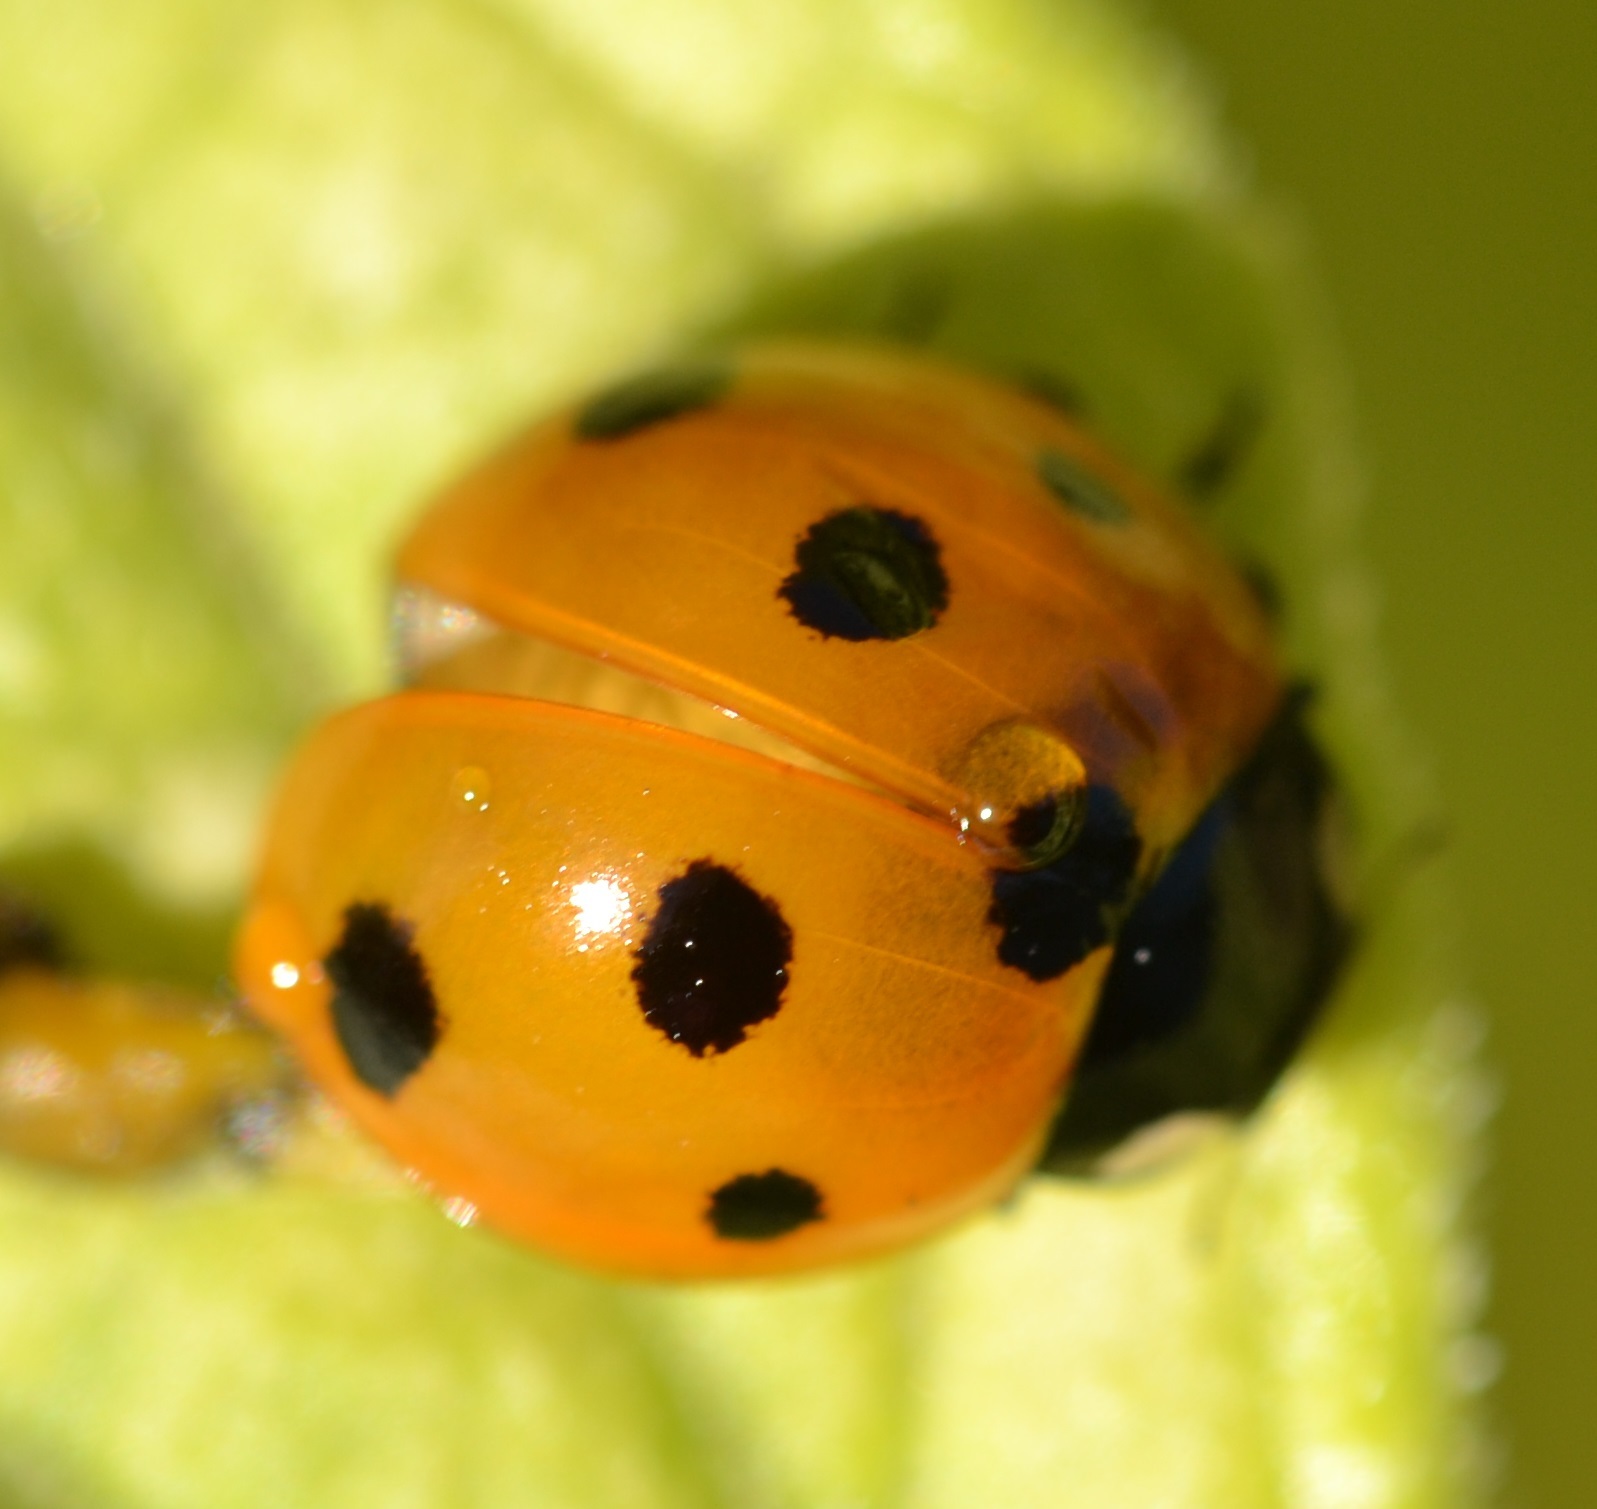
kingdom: Animalia
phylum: Arthropoda
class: Insecta
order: Coleoptera
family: Coccinellidae
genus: Coccinella
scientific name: Coccinella septempunctata
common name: Sevenspotted lady beetle
